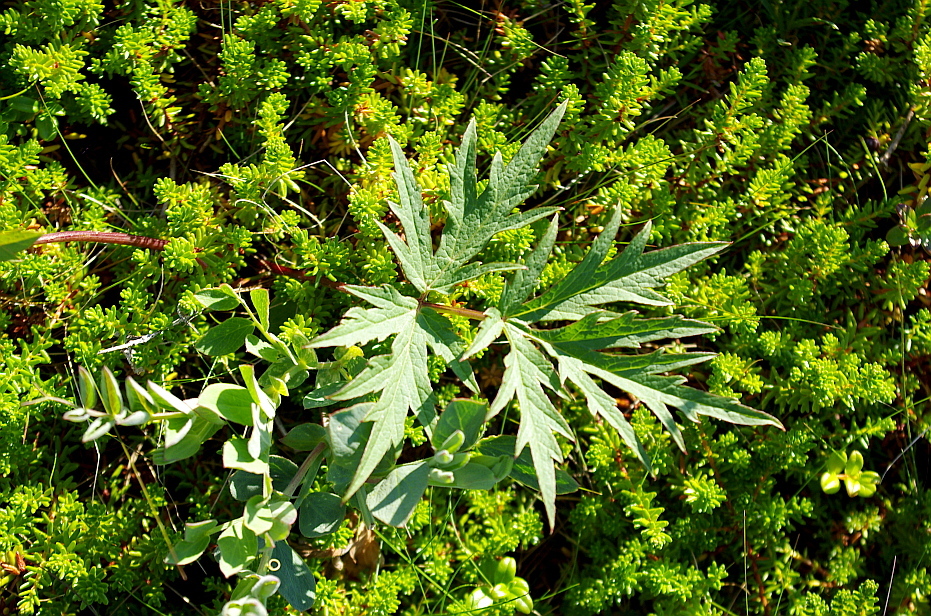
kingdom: Plantae
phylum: Tracheophyta
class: Magnoliopsida
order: Apiales
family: Apiaceae
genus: Heracleum
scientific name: Heracleum sphondylium
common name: Hogweed
